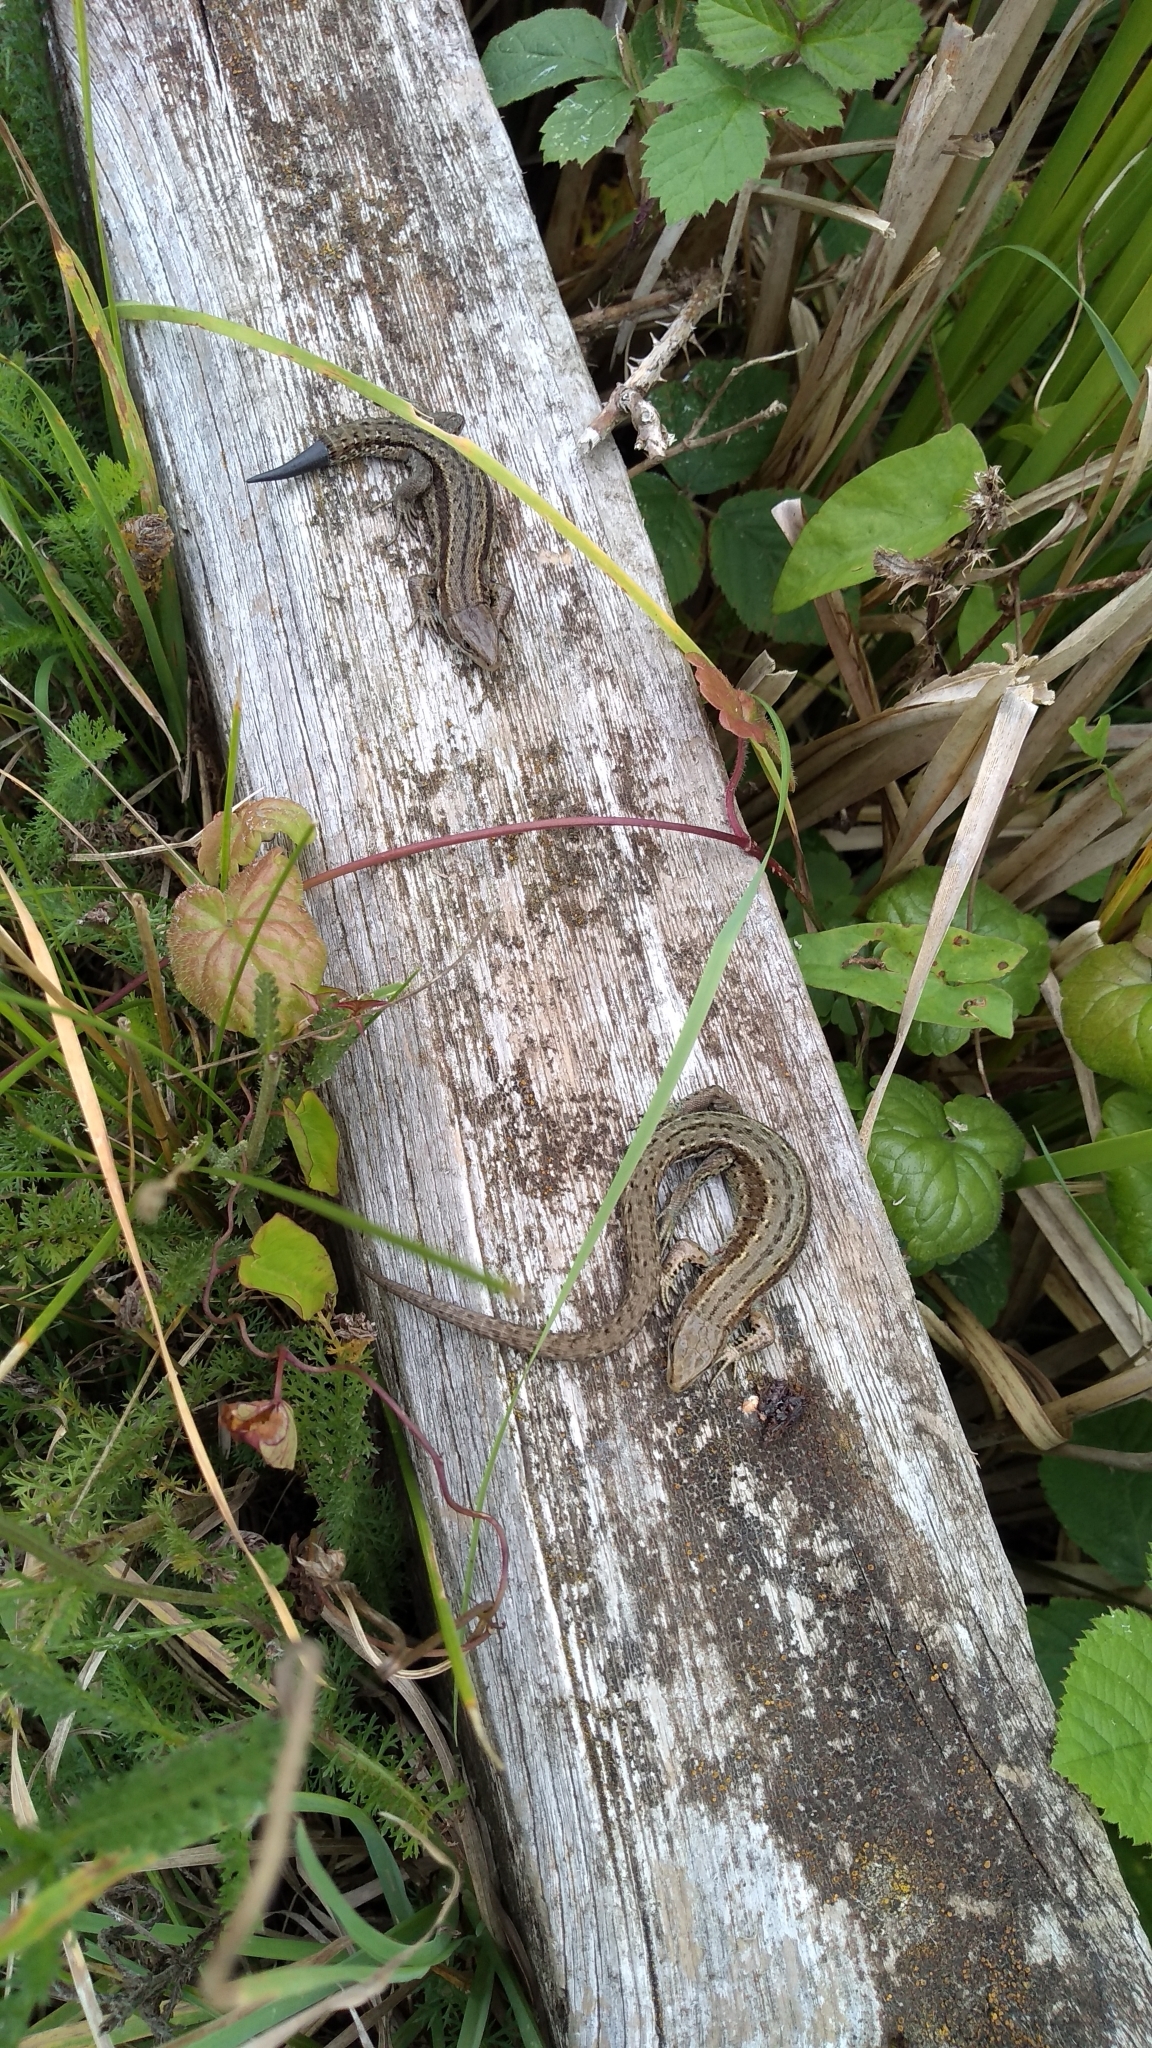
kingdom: Animalia
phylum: Chordata
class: Squamata
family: Lacertidae
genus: Zootoca
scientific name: Zootoca vivipara
